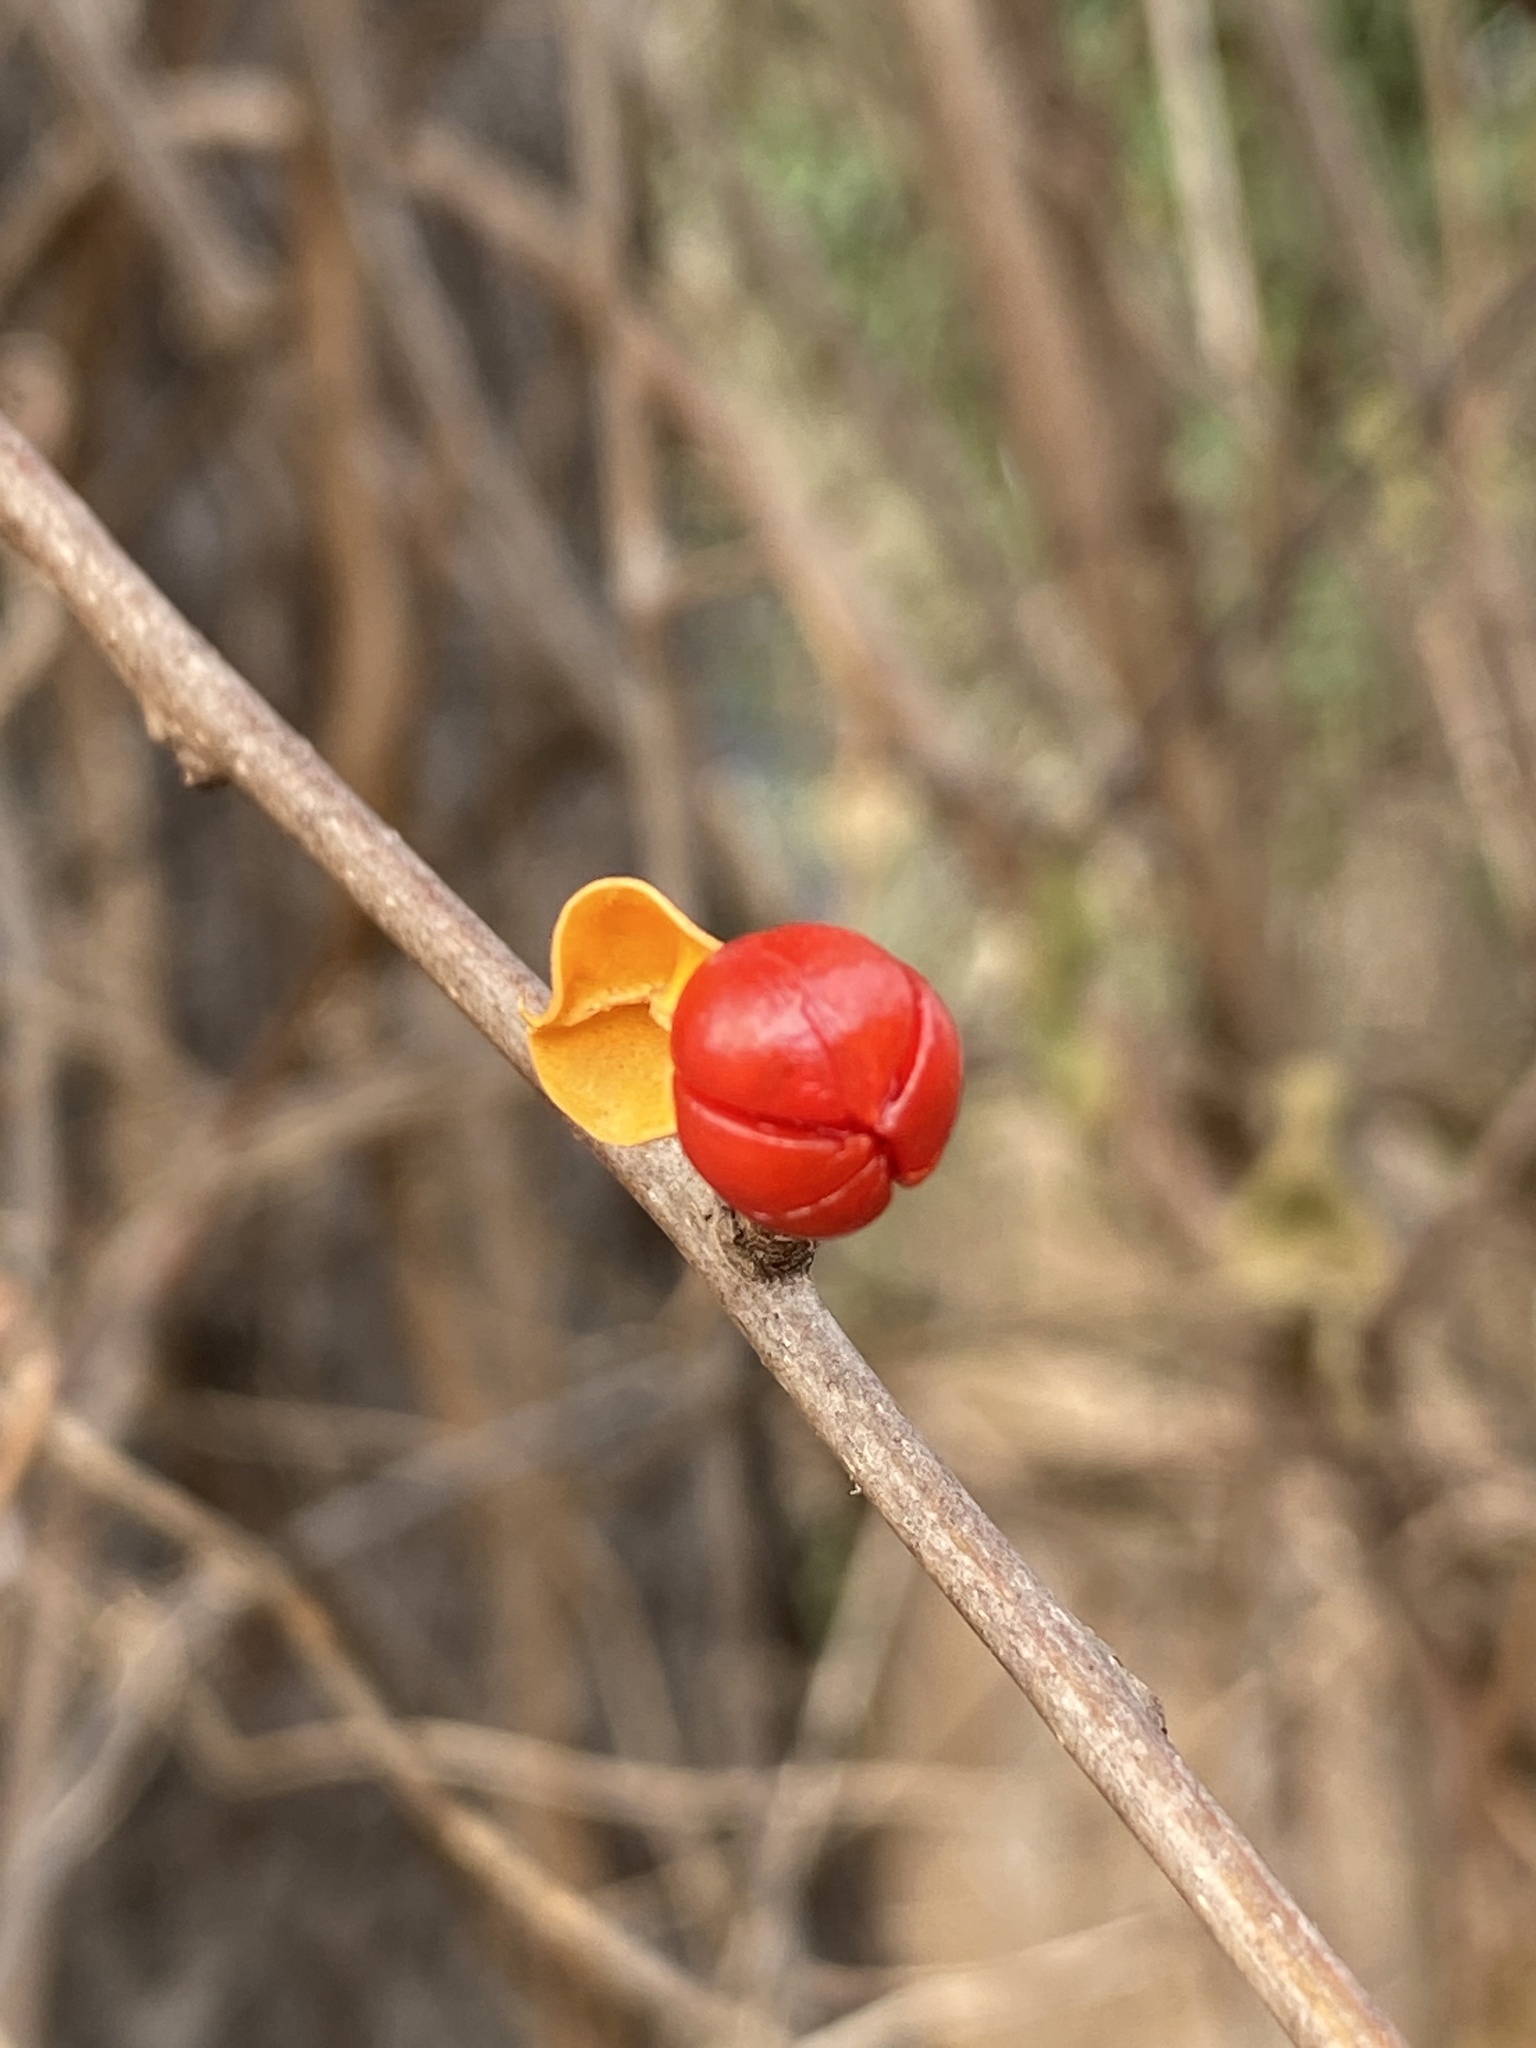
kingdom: Plantae
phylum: Tracheophyta
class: Magnoliopsida
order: Celastrales
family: Celastraceae
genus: Celastrus
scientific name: Celastrus orbiculatus
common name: Oriental bittersweet
